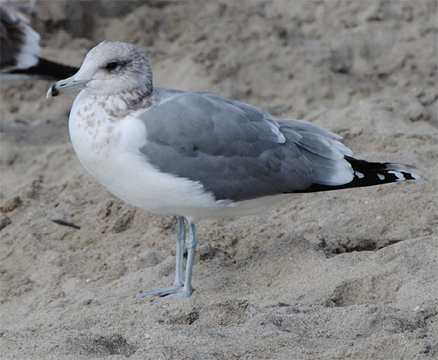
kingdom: Animalia
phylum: Chordata
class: Aves
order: Charadriiformes
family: Laridae
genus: Larus
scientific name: Larus californicus
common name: California gull
